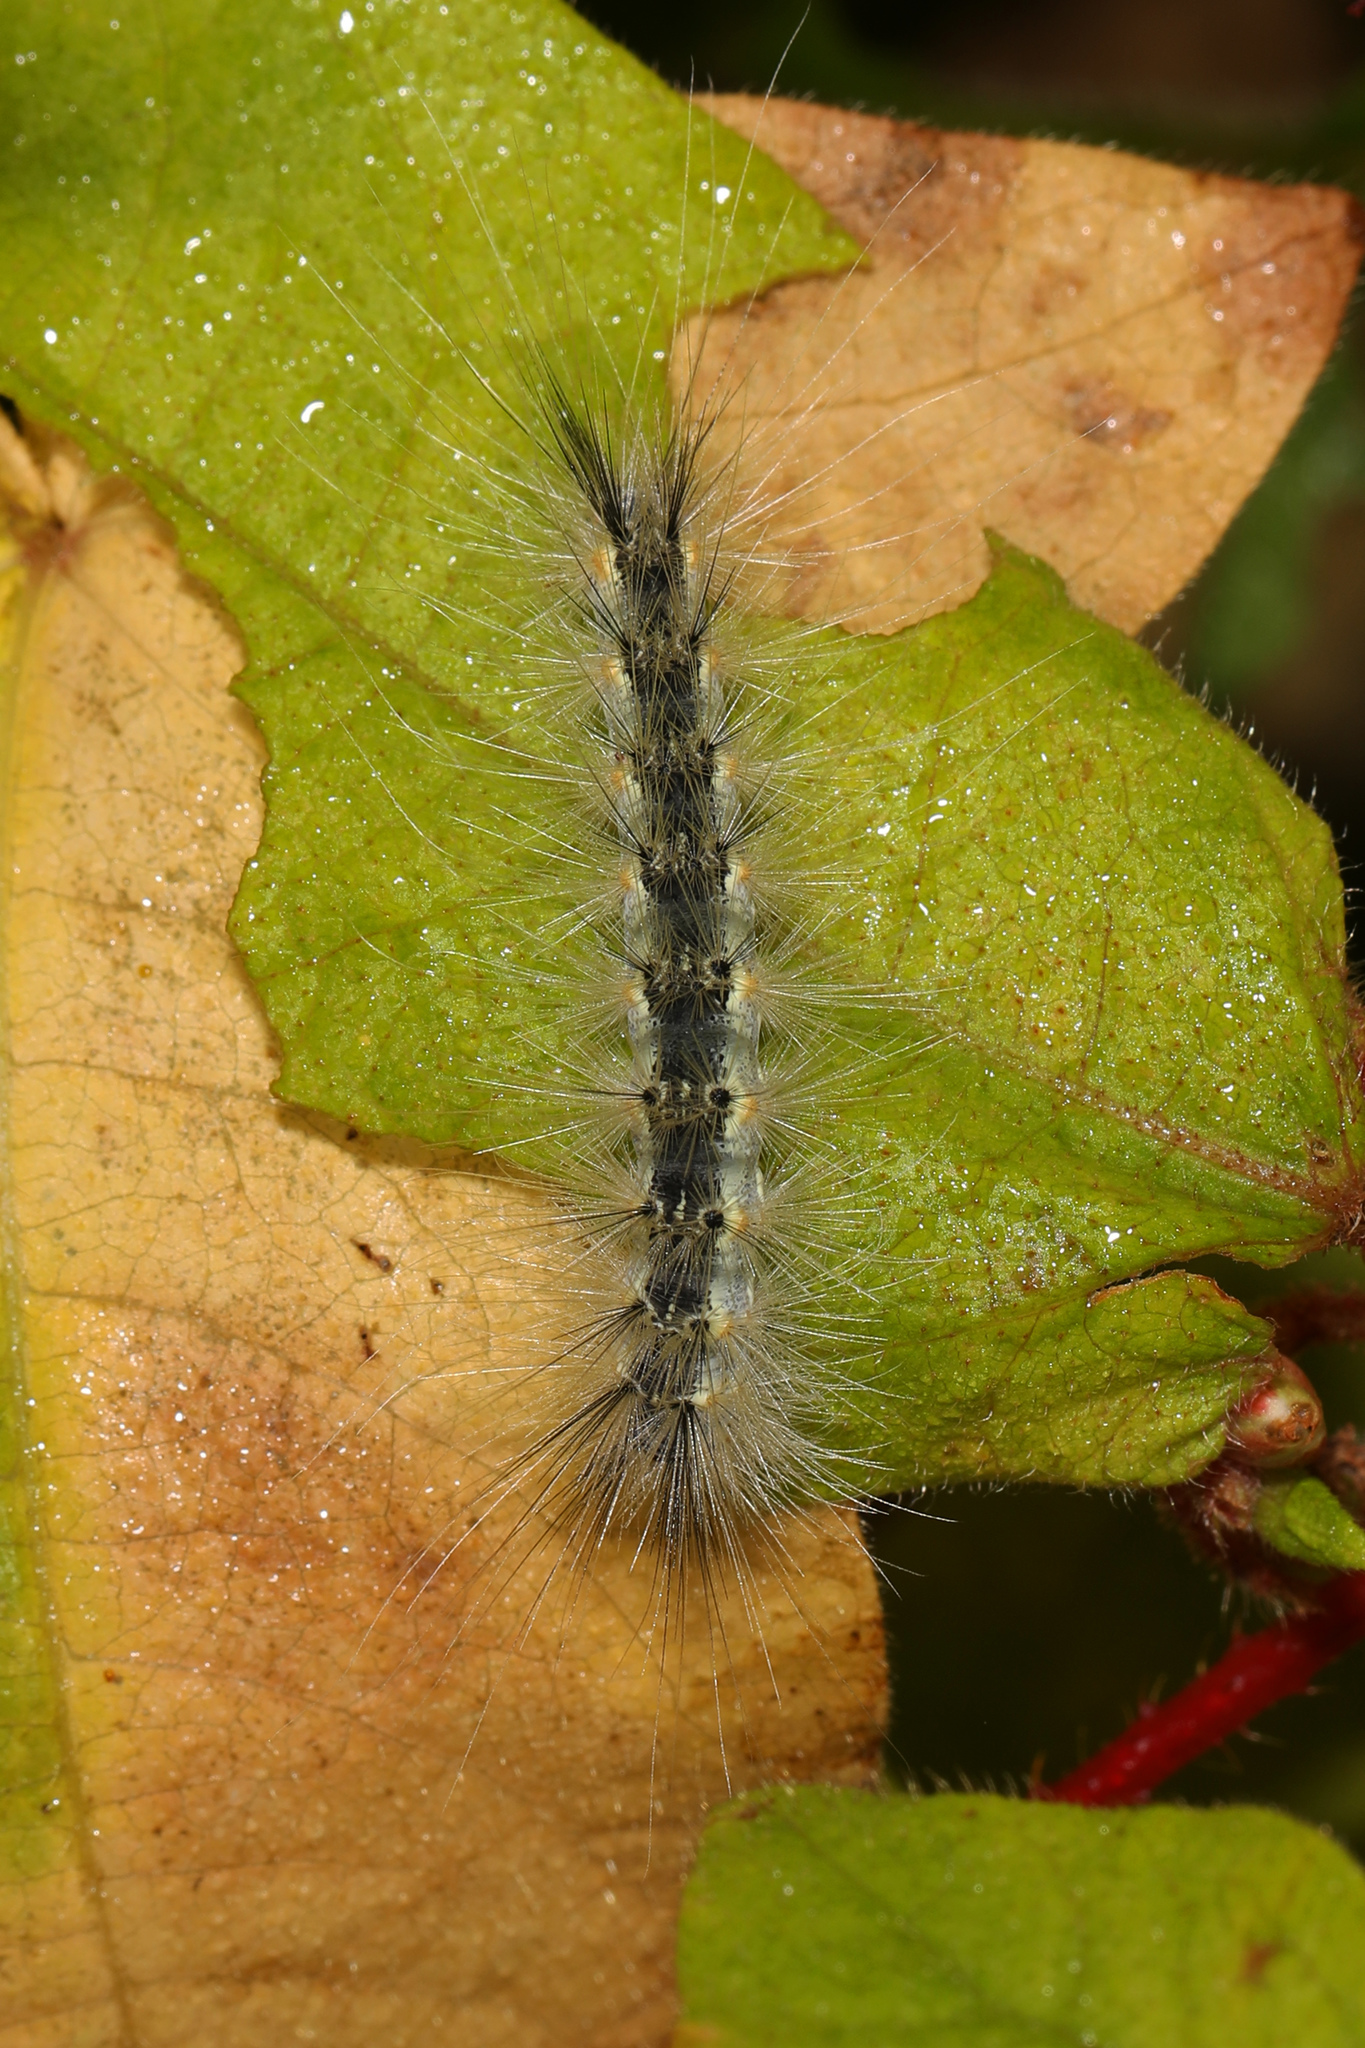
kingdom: Animalia
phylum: Arthropoda
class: Insecta
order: Lepidoptera
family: Erebidae
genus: Hyphantria
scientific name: Hyphantria cunea
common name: American white moth
